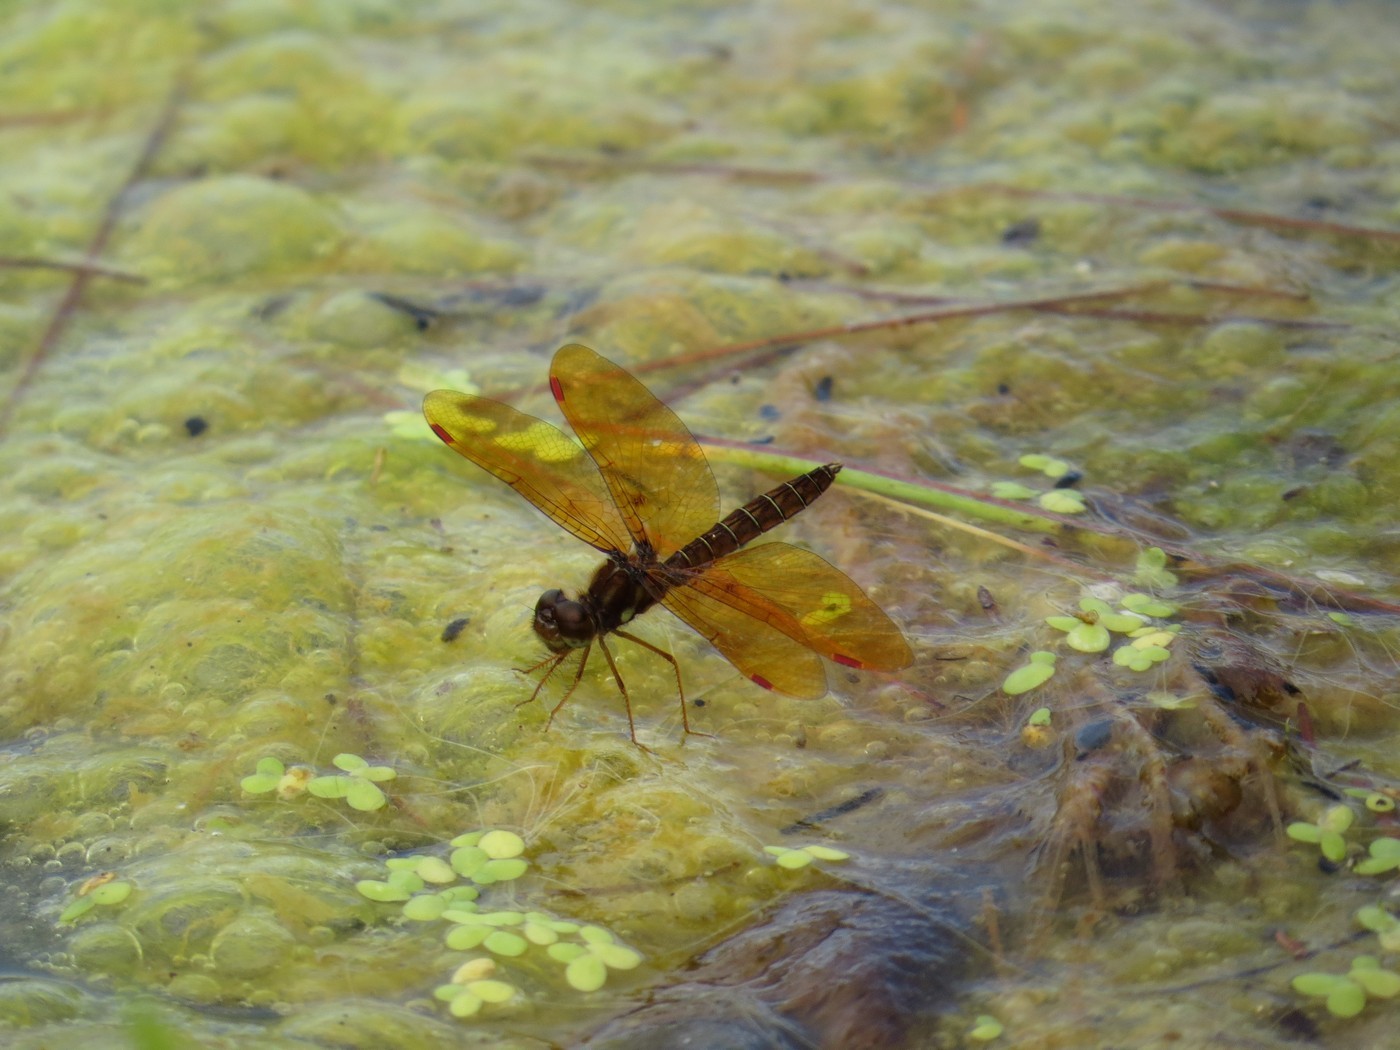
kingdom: Animalia
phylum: Arthropoda
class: Insecta
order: Odonata
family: Libellulidae
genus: Perithemis
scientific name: Perithemis tenera
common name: Eastern amberwing
